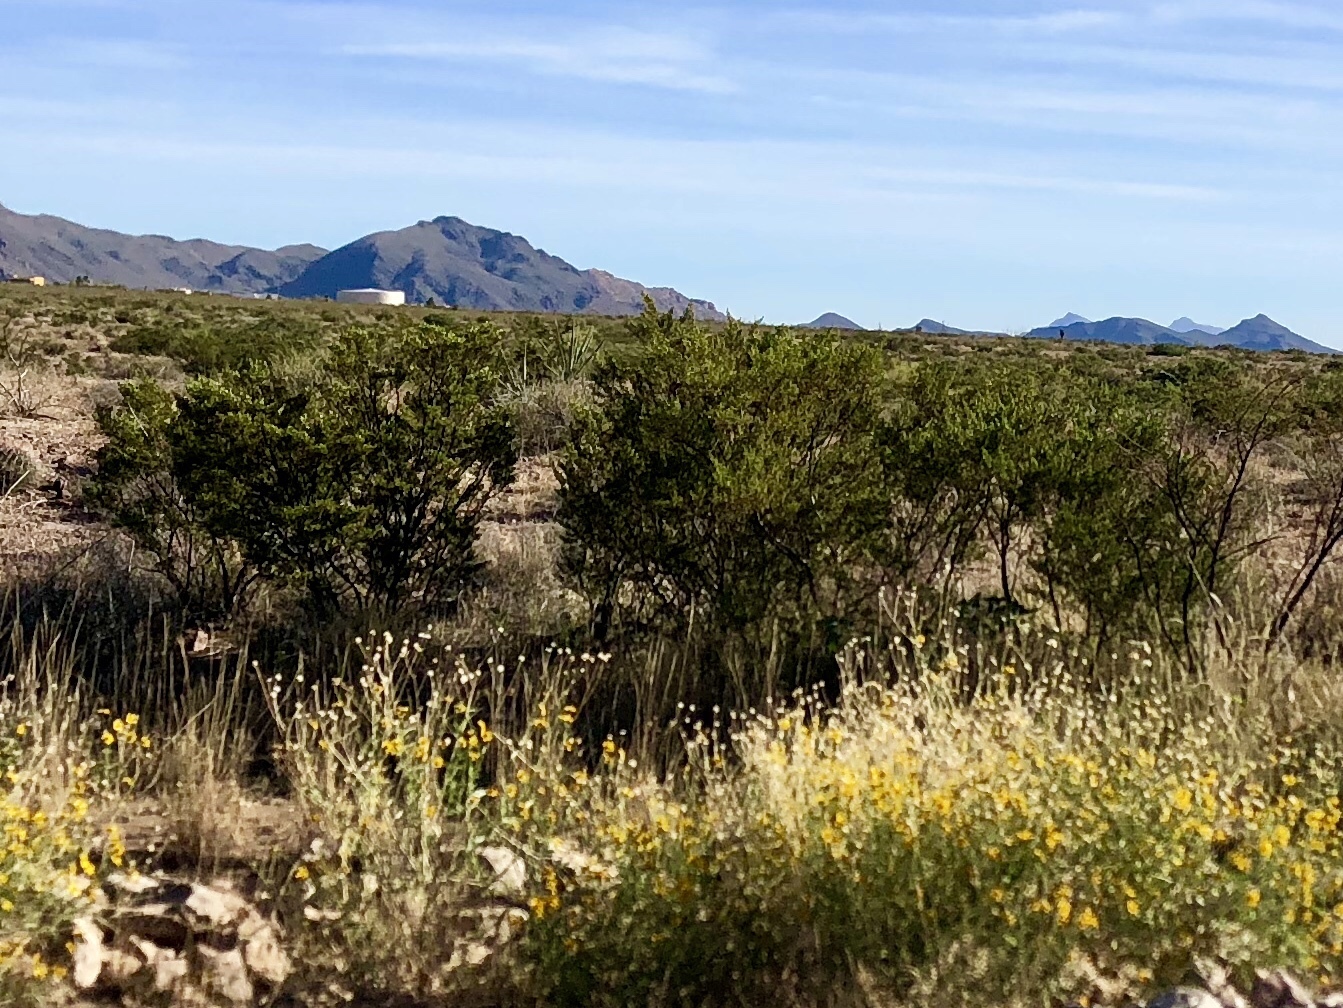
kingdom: Plantae
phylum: Tracheophyta
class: Magnoliopsida
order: Zygophyllales
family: Zygophyllaceae
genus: Larrea
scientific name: Larrea tridentata
